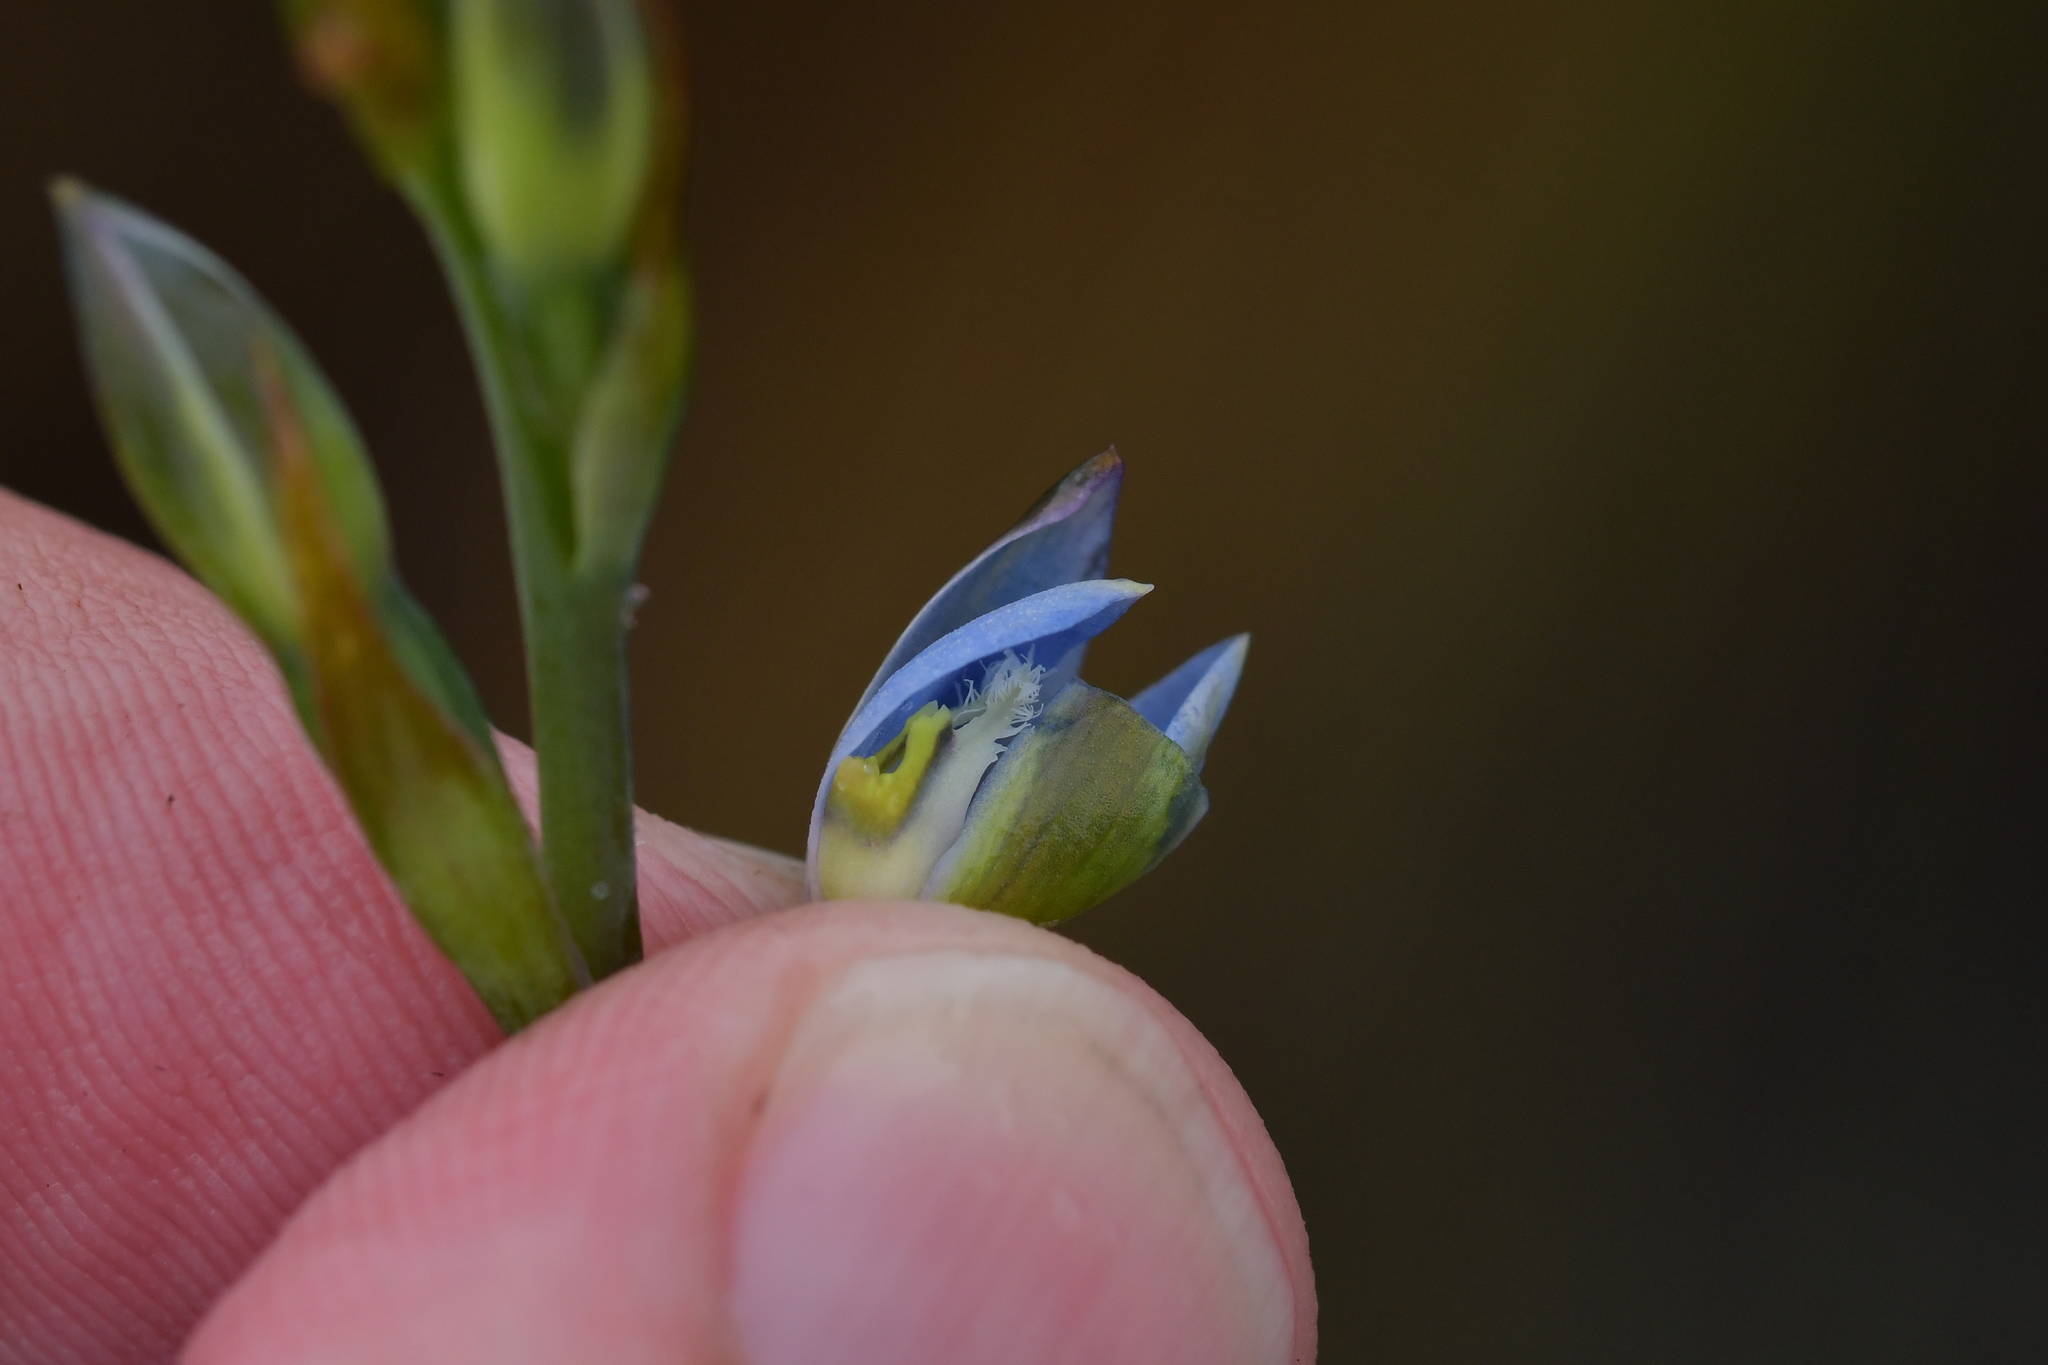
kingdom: Plantae
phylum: Tracheophyta
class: Liliopsida
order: Asparagales
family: Orchidaceae
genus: Thelymitra
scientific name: Thelymitra aemula
